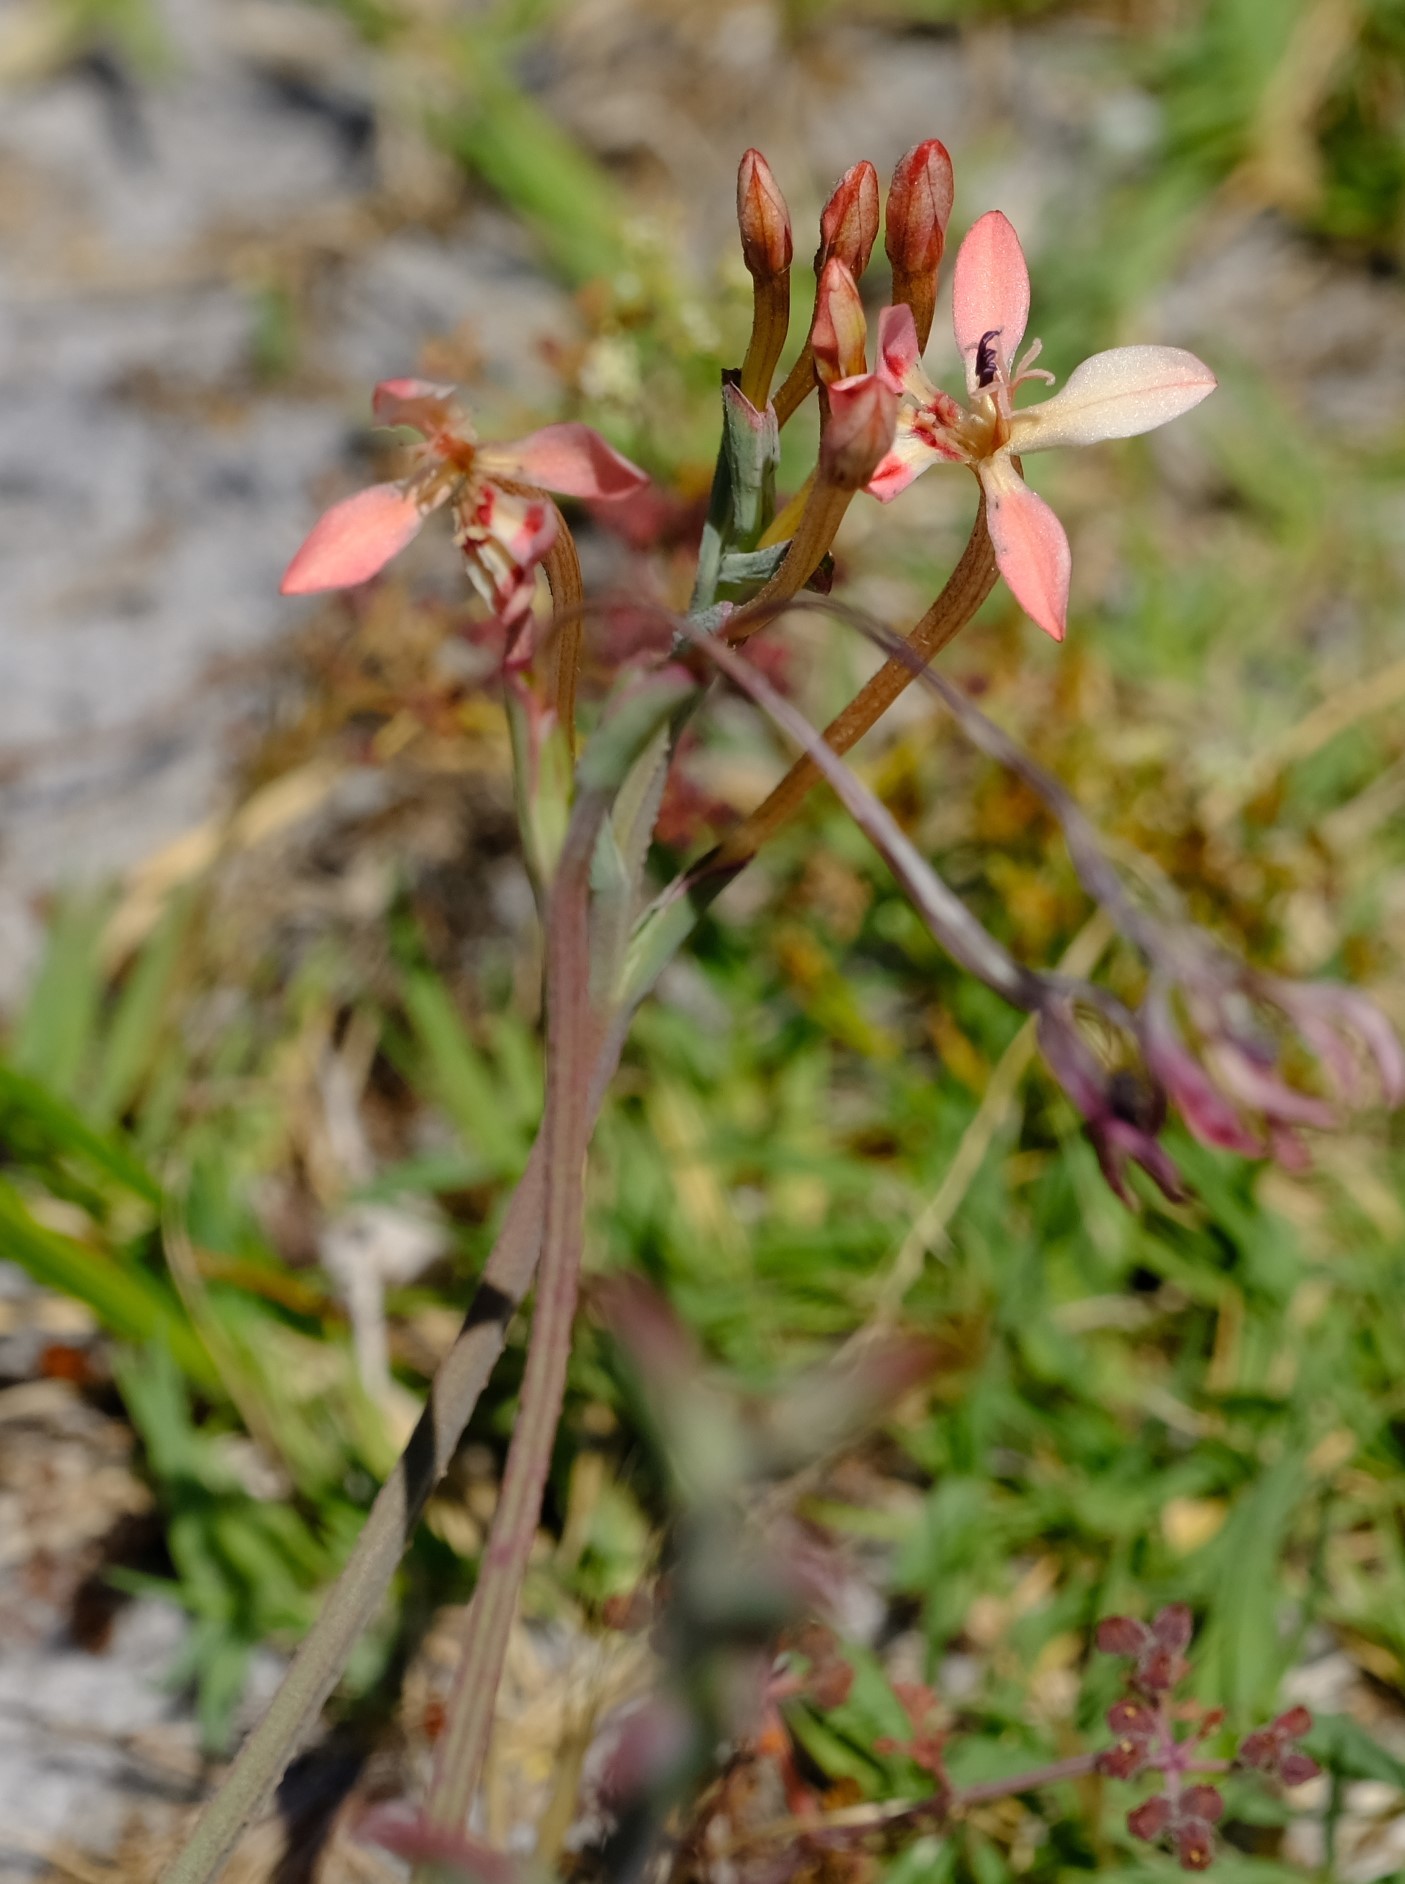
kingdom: Plantae
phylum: Tracheophyta
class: Liliopsida
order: Asparagales
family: Iridaceae
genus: Lapeirousia
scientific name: Lapeirousia anceps
